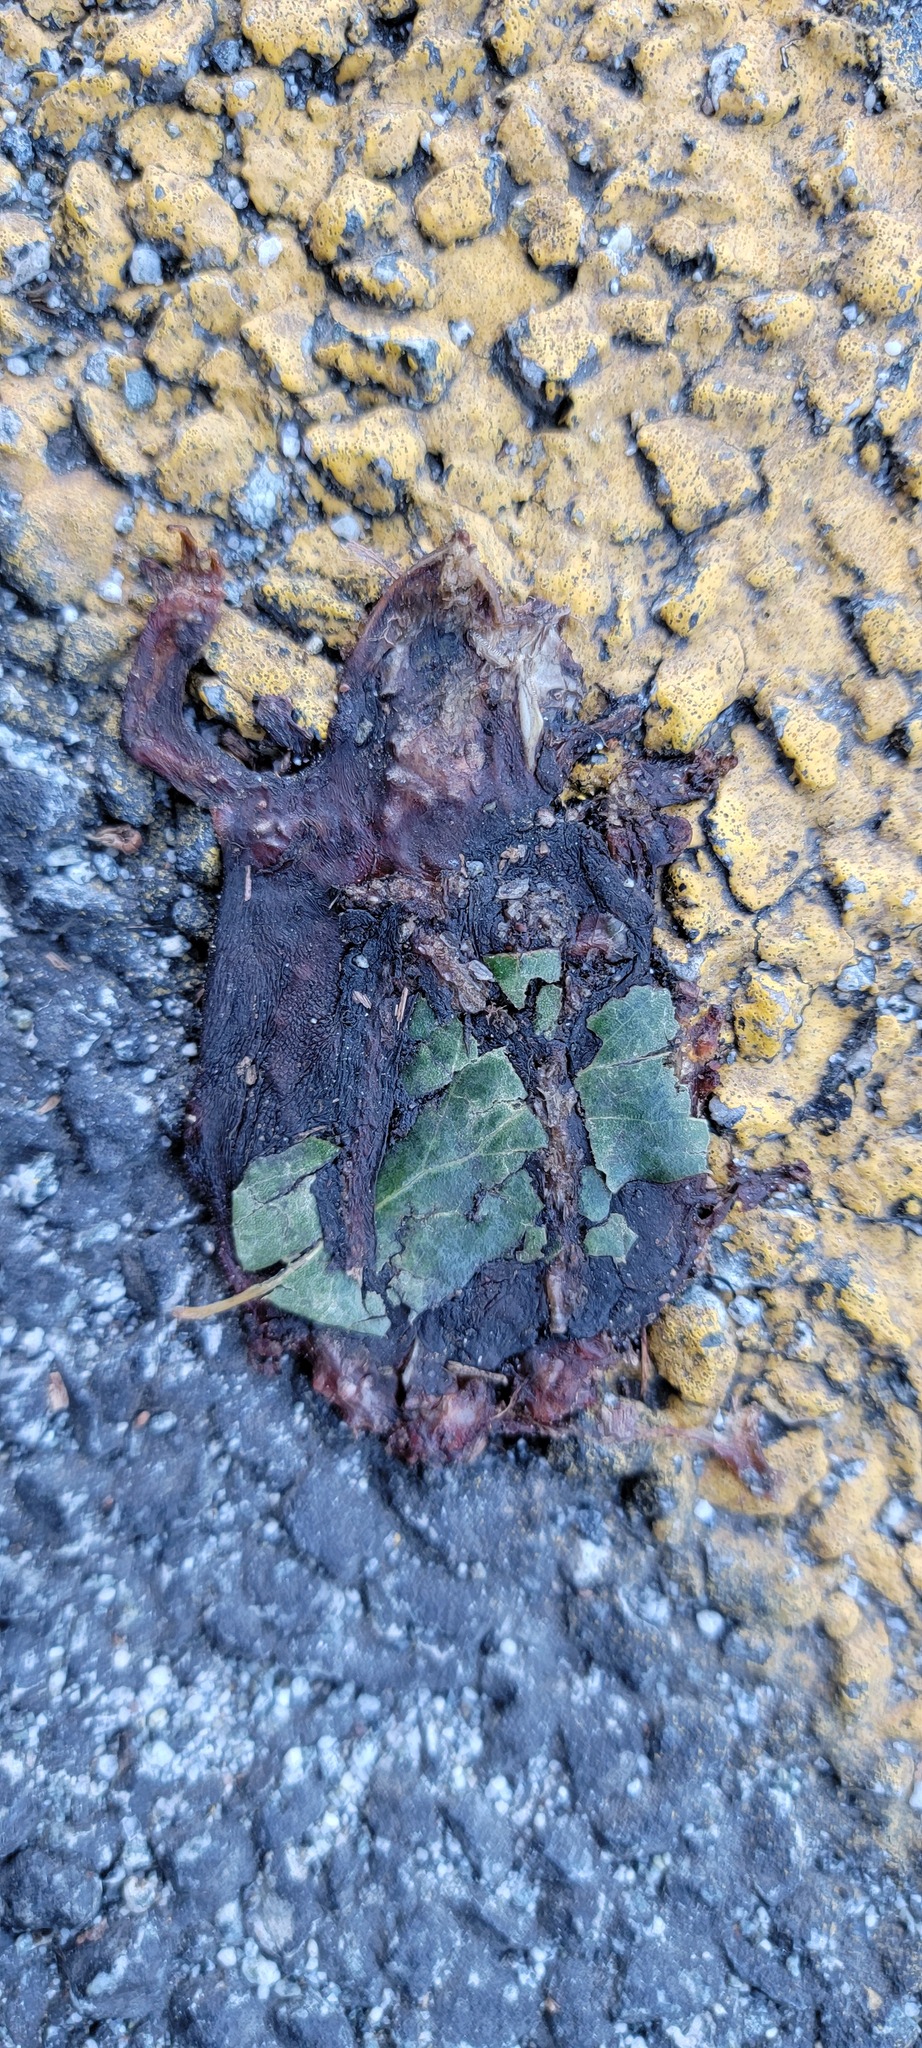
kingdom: Animalia
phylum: Chordata
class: Amphibia
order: Caudata
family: Salamandridae
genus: Taricha
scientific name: Taricha
